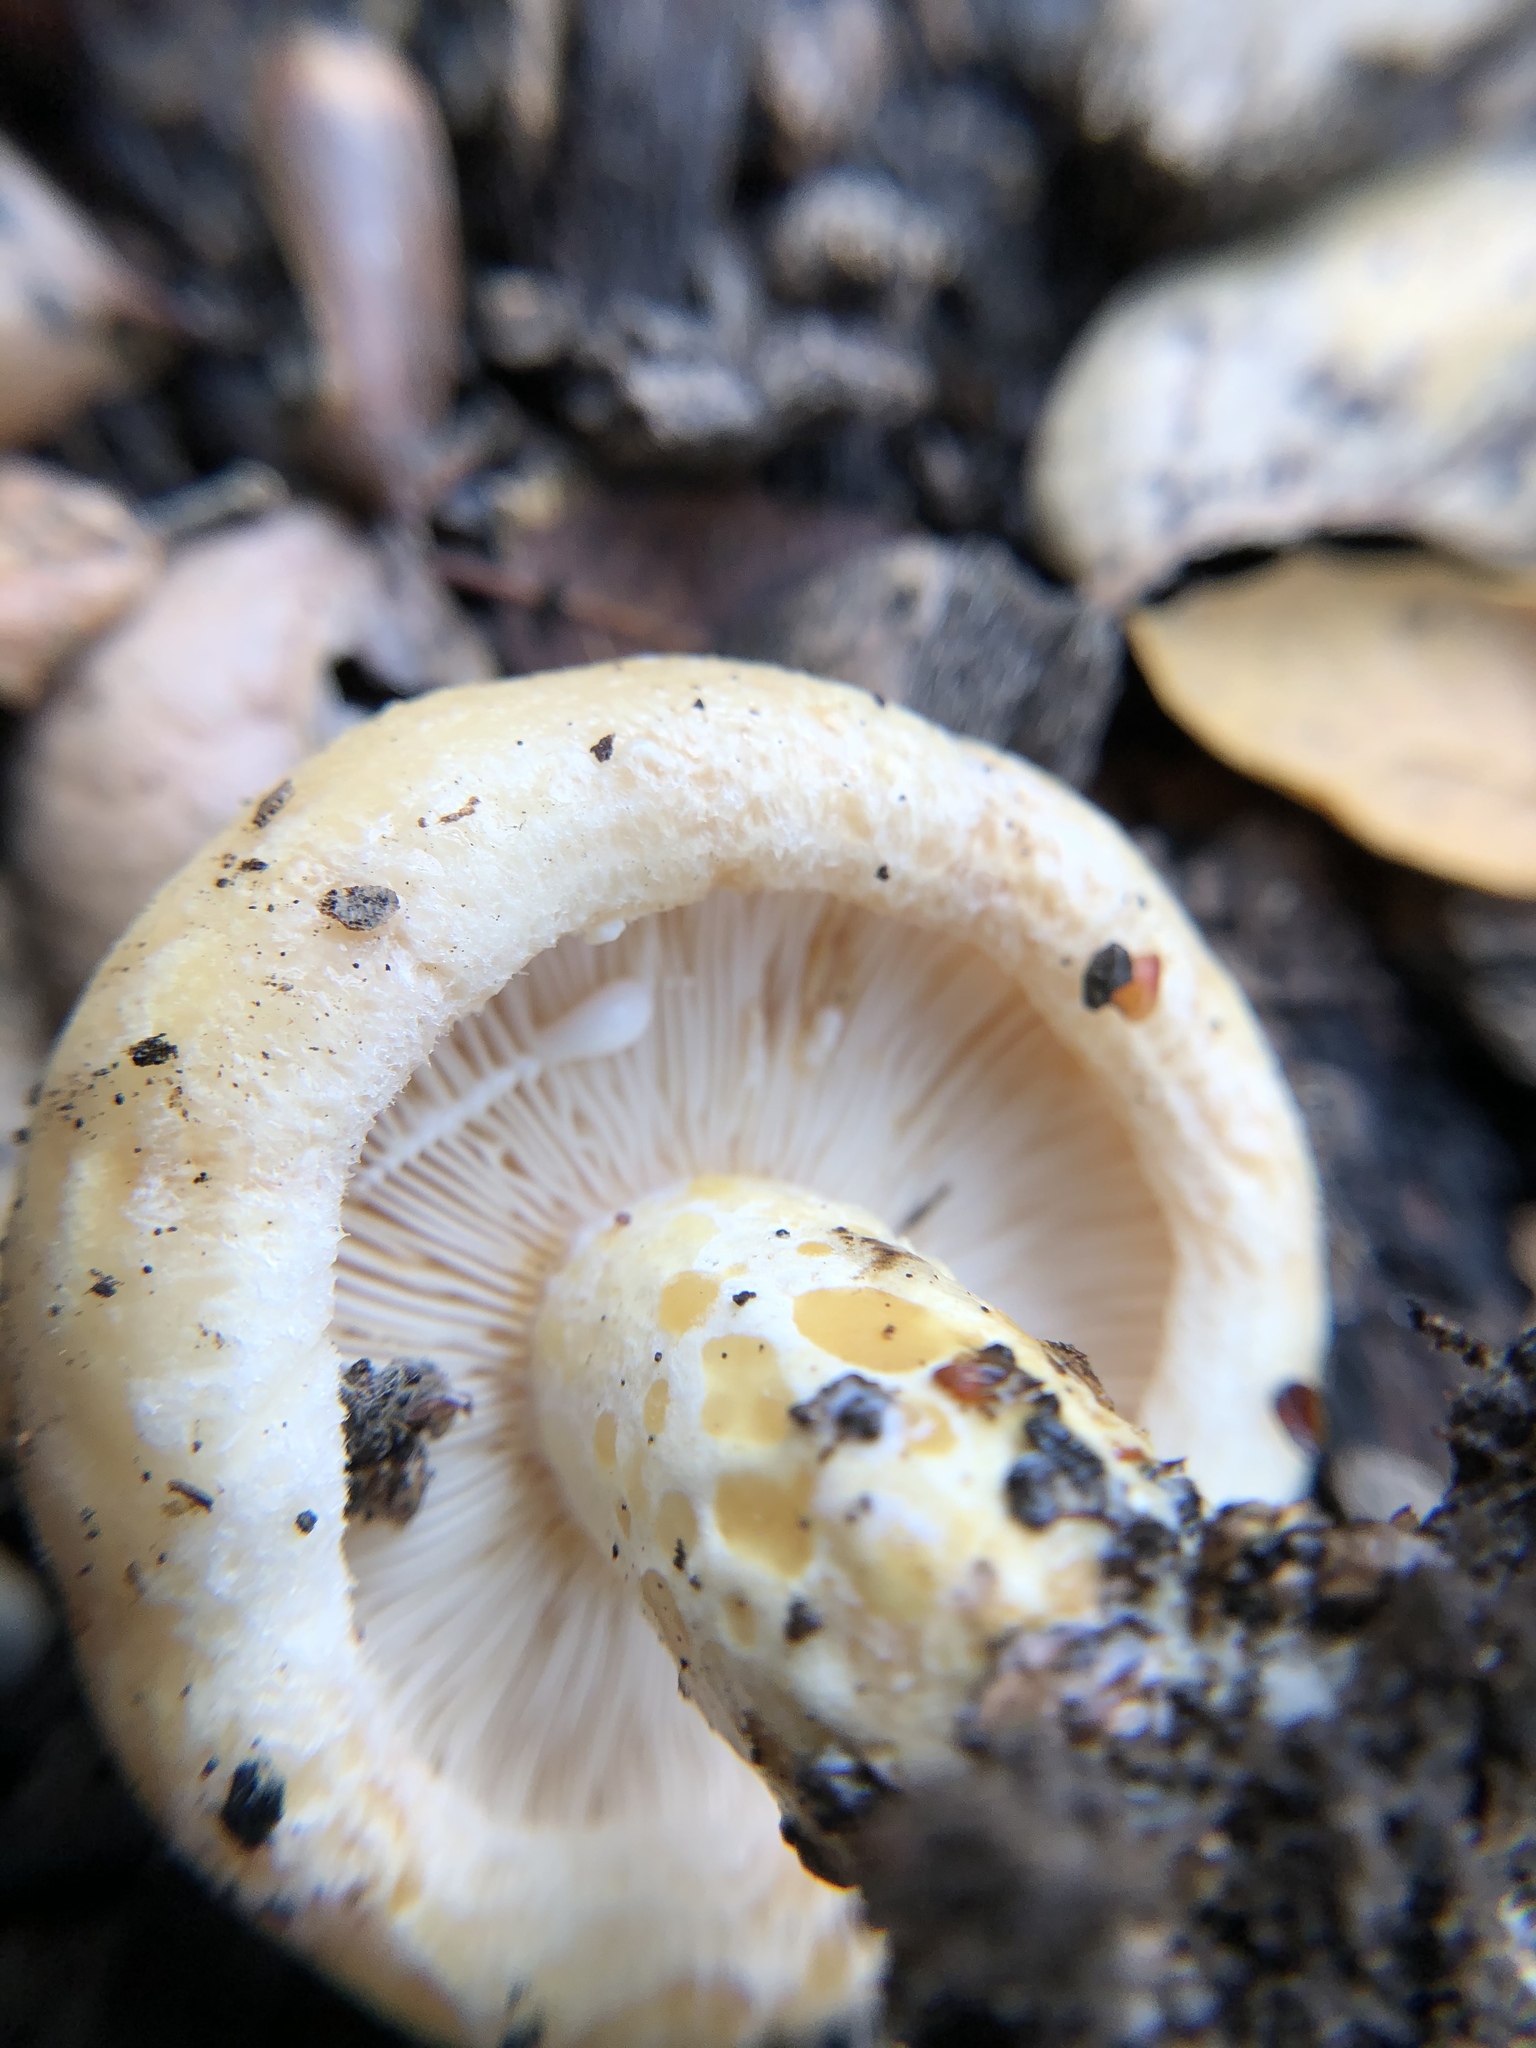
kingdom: Fungi
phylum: Basidiomycota
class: Agaricomycetes
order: Russulales
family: Russulaceae
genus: Lactarius
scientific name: Lactarius alnicola
